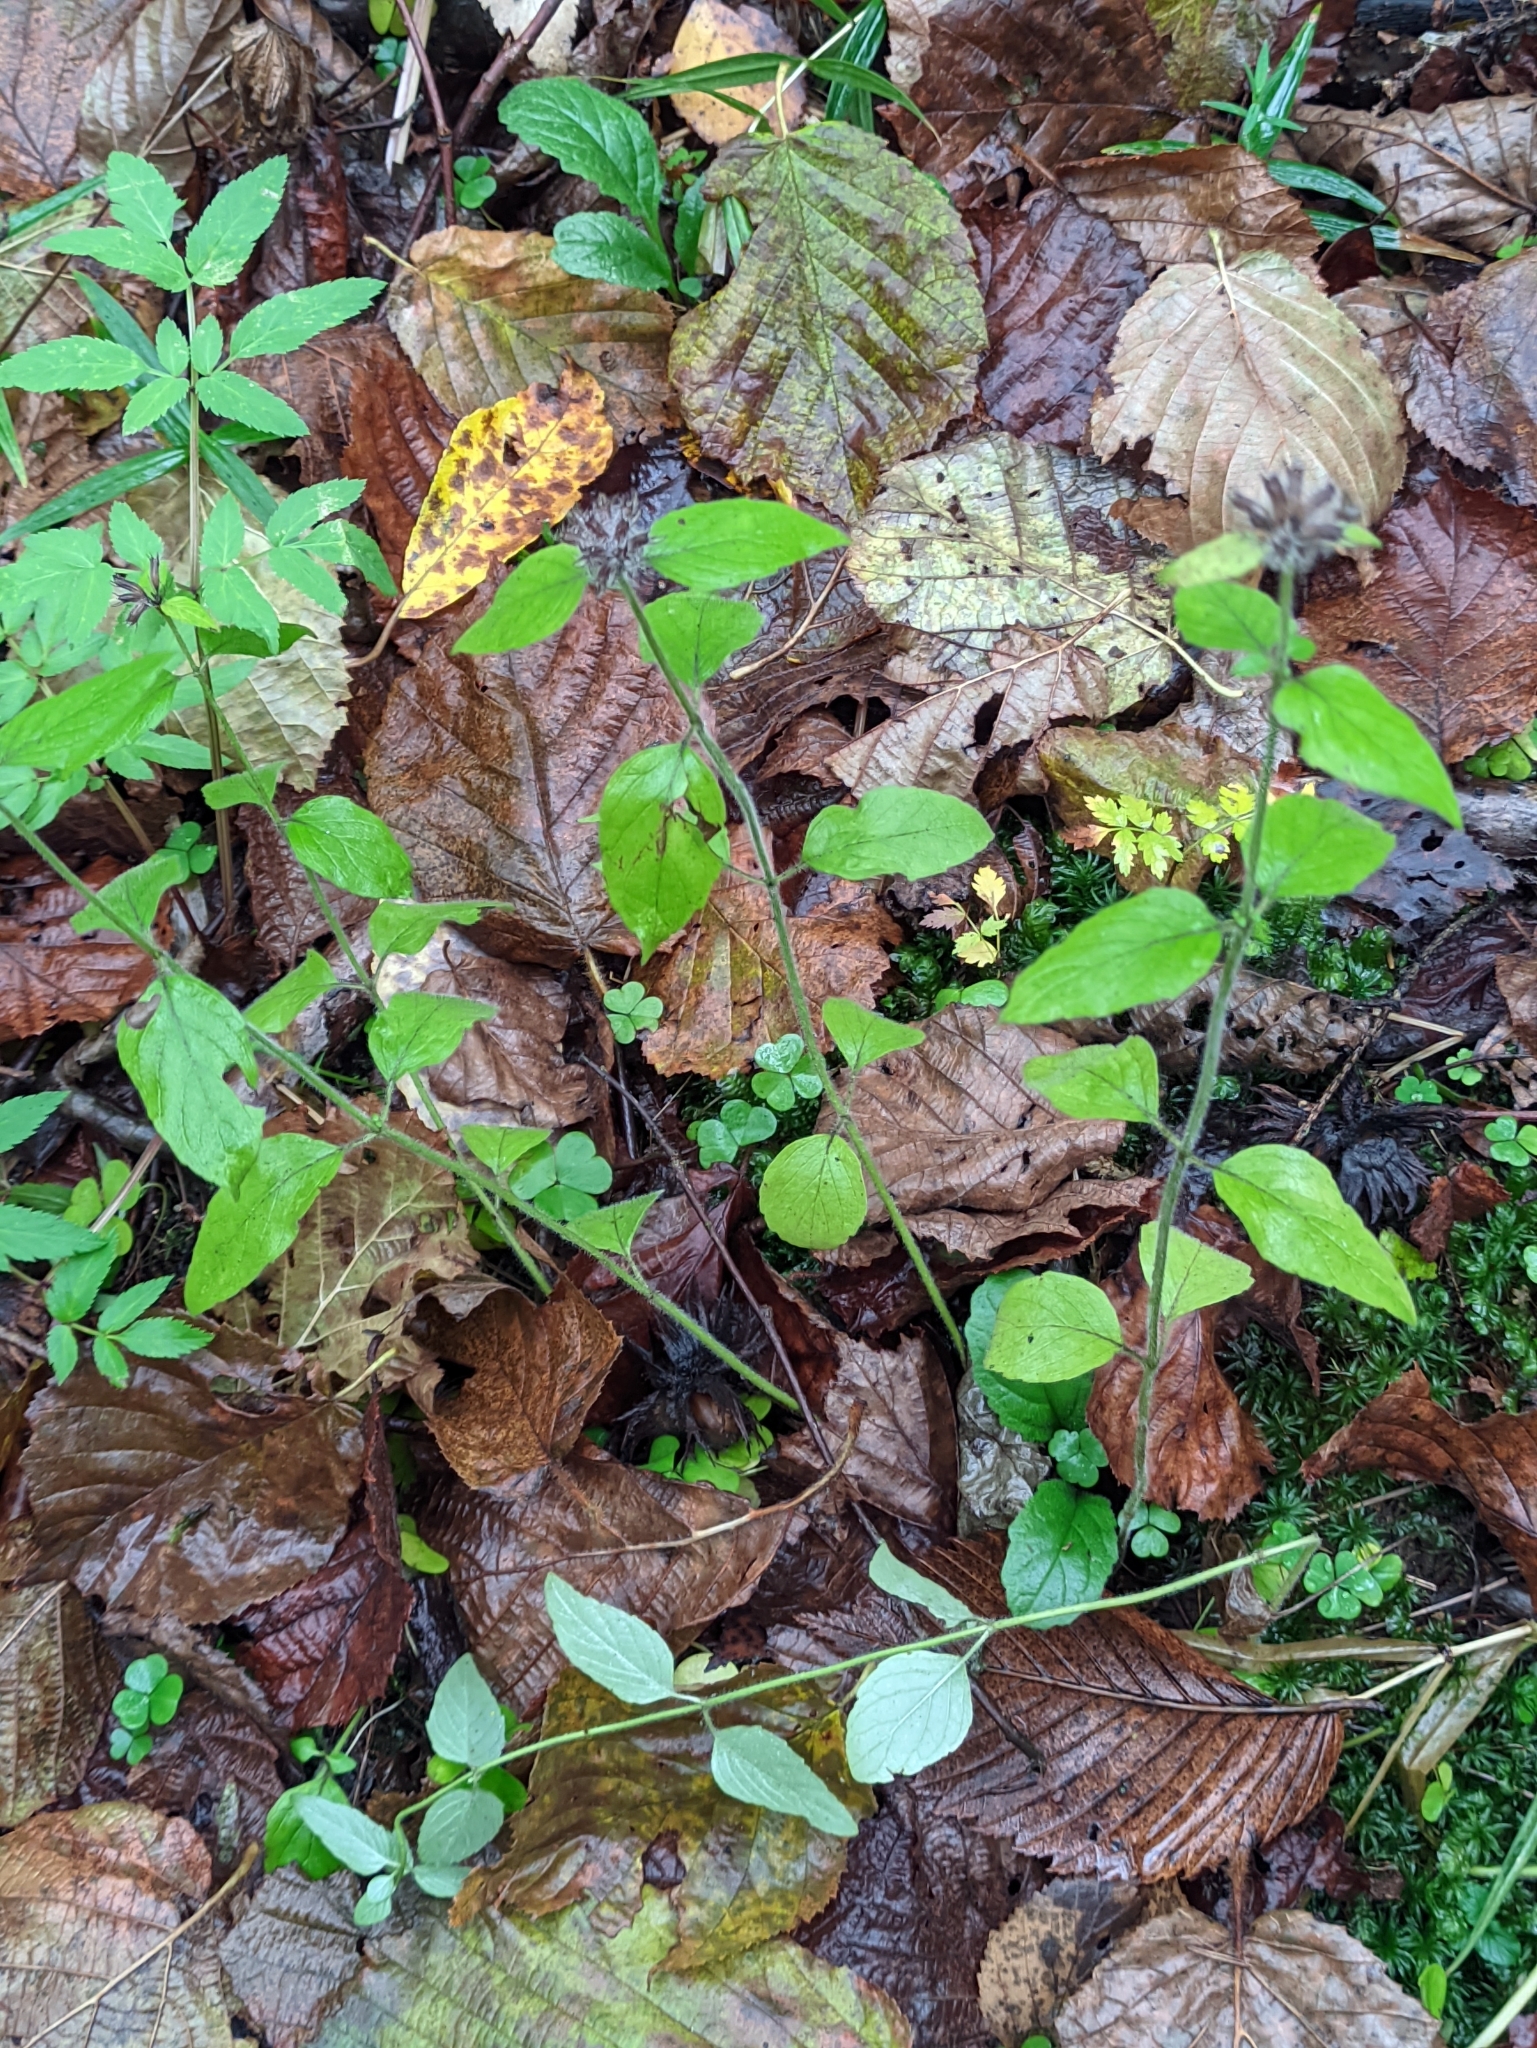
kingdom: Plantae
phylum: Tracheophyta
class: Magnoliopsida
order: Lamiales
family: Lamiaceae
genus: Clinopodium
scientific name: Clinopodium vulgare
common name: Wild basil
